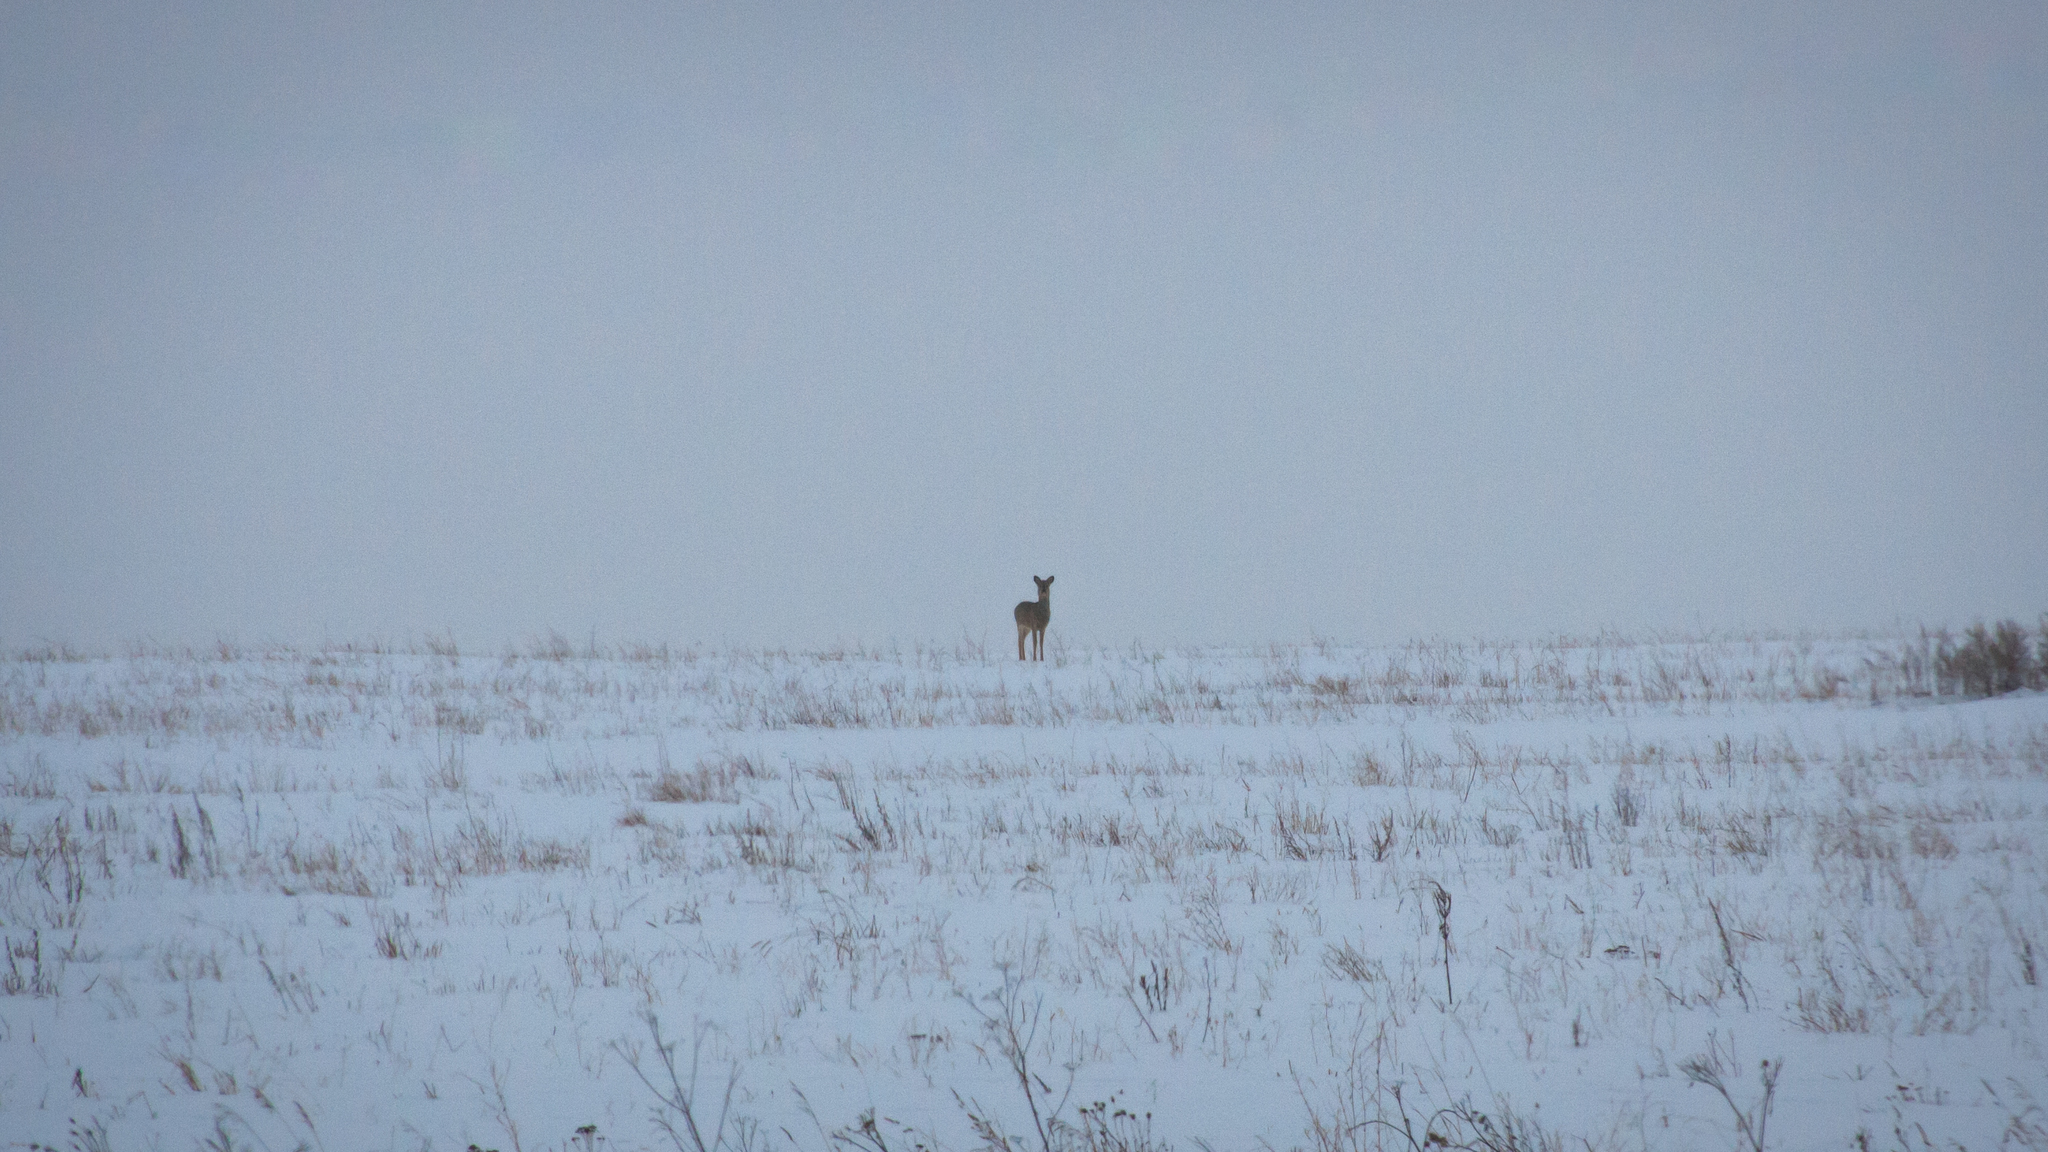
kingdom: Animalia
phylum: Chordata
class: Mammalia
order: Artiodactyla
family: Cervidae
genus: Capreolus
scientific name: Capreolus pygargus
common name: Siberian roe
